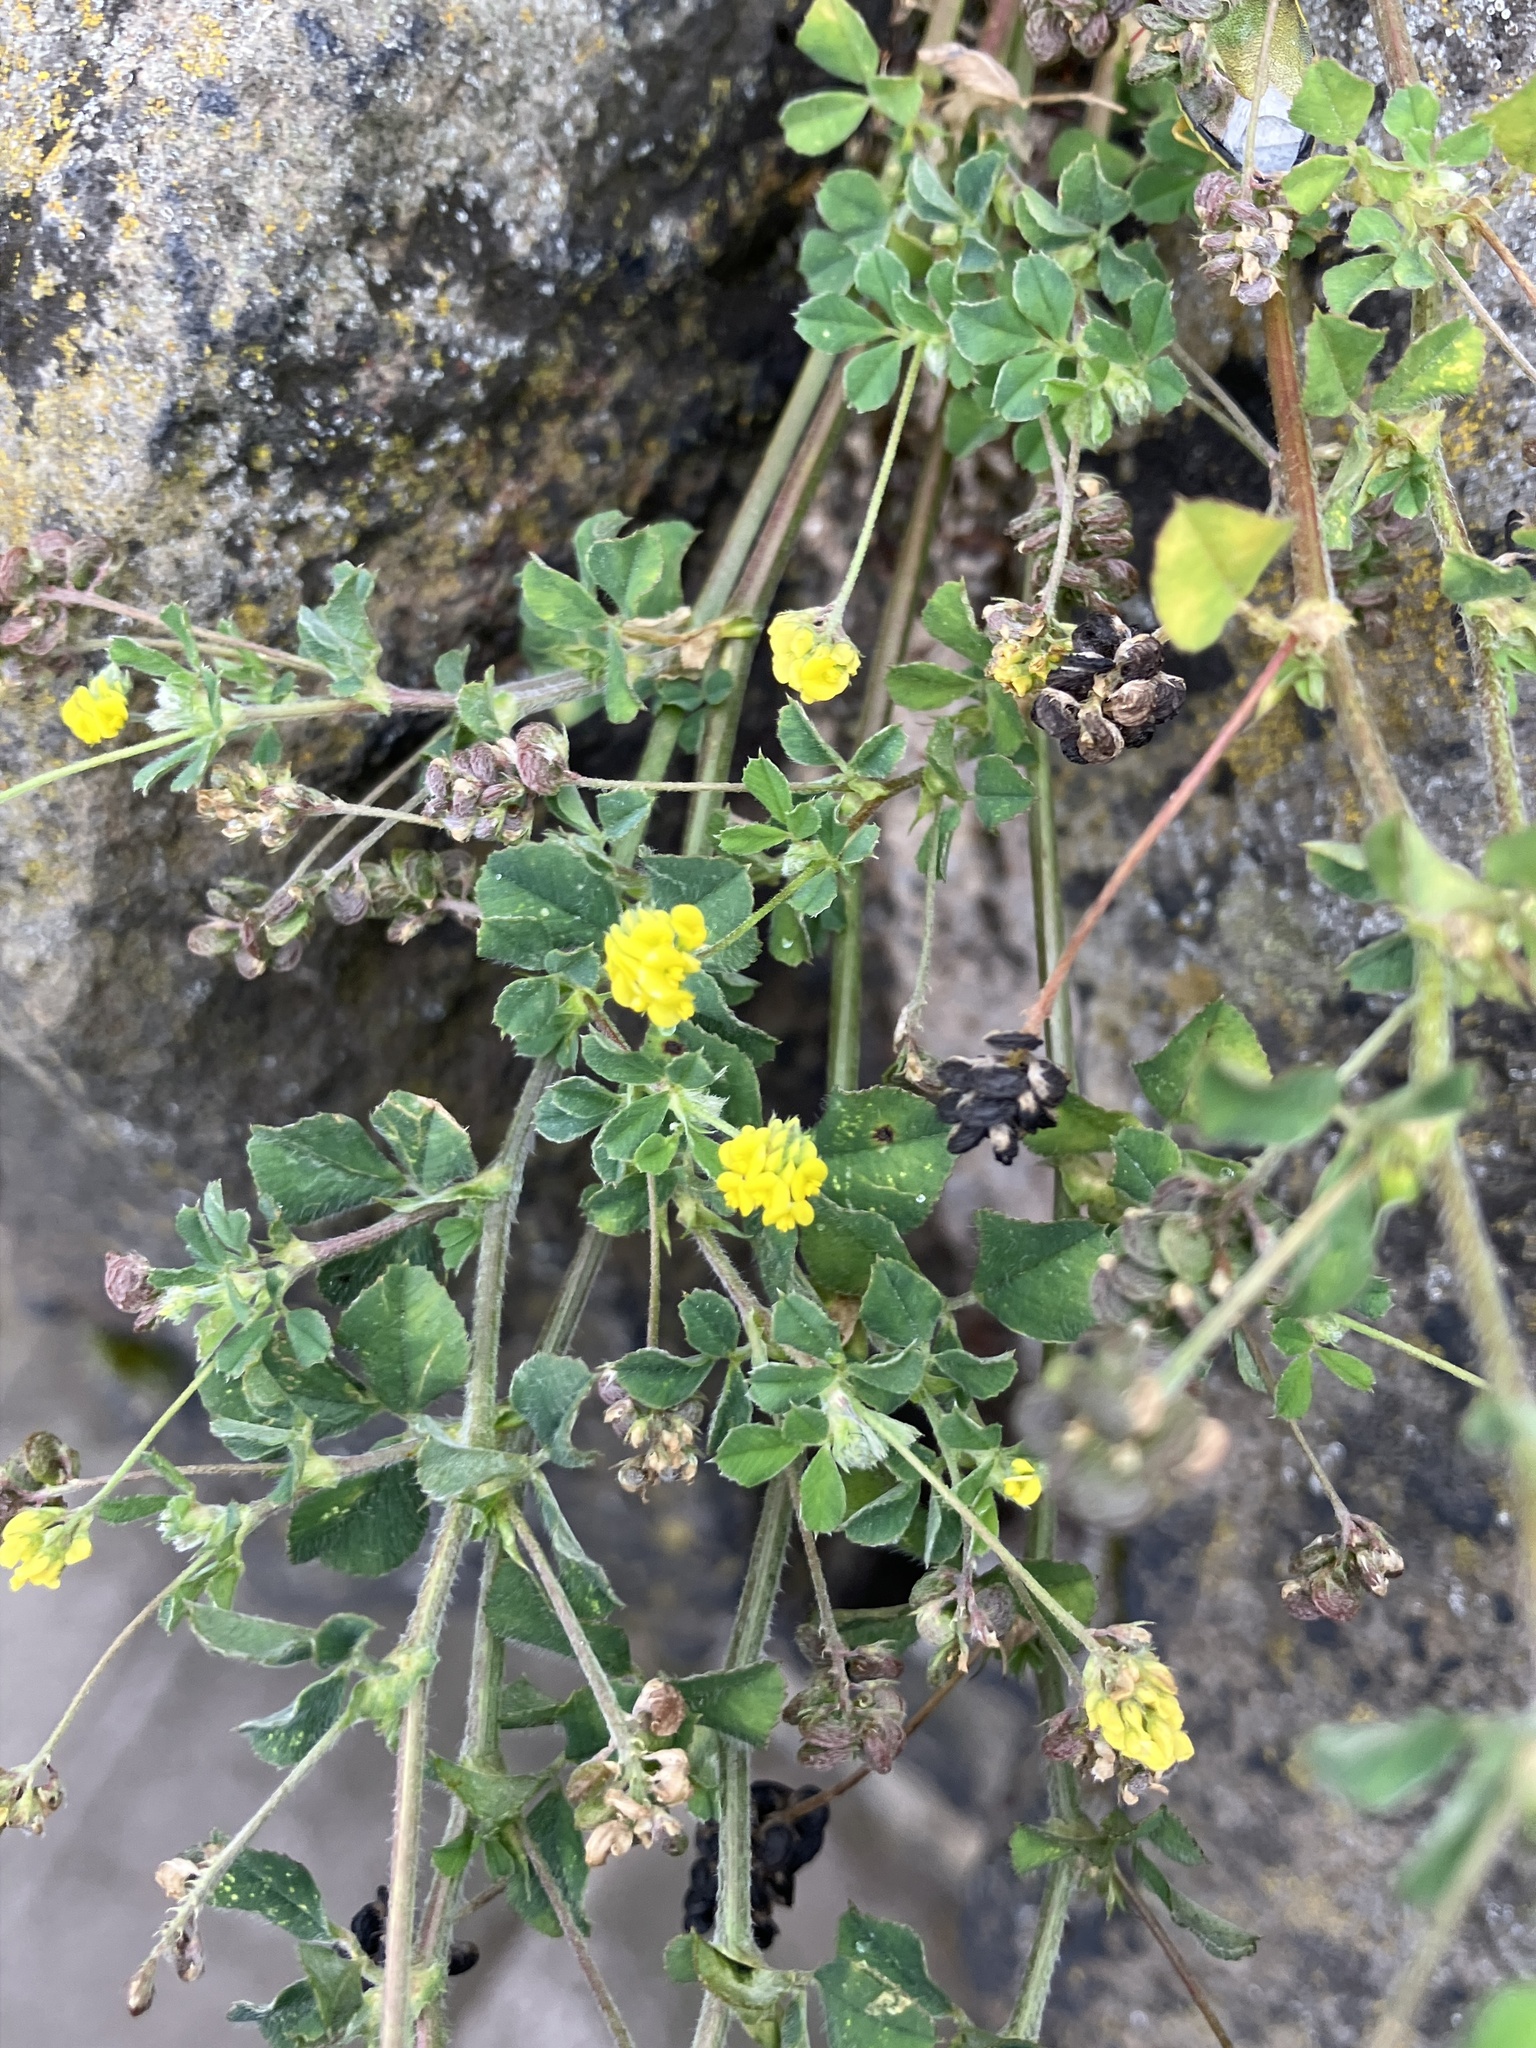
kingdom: Plantae
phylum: Tracheophyta
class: Magnoliopsida
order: Fabales
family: Fabaceae
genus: Medicago
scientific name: Medicago lupulina
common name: Black medick
